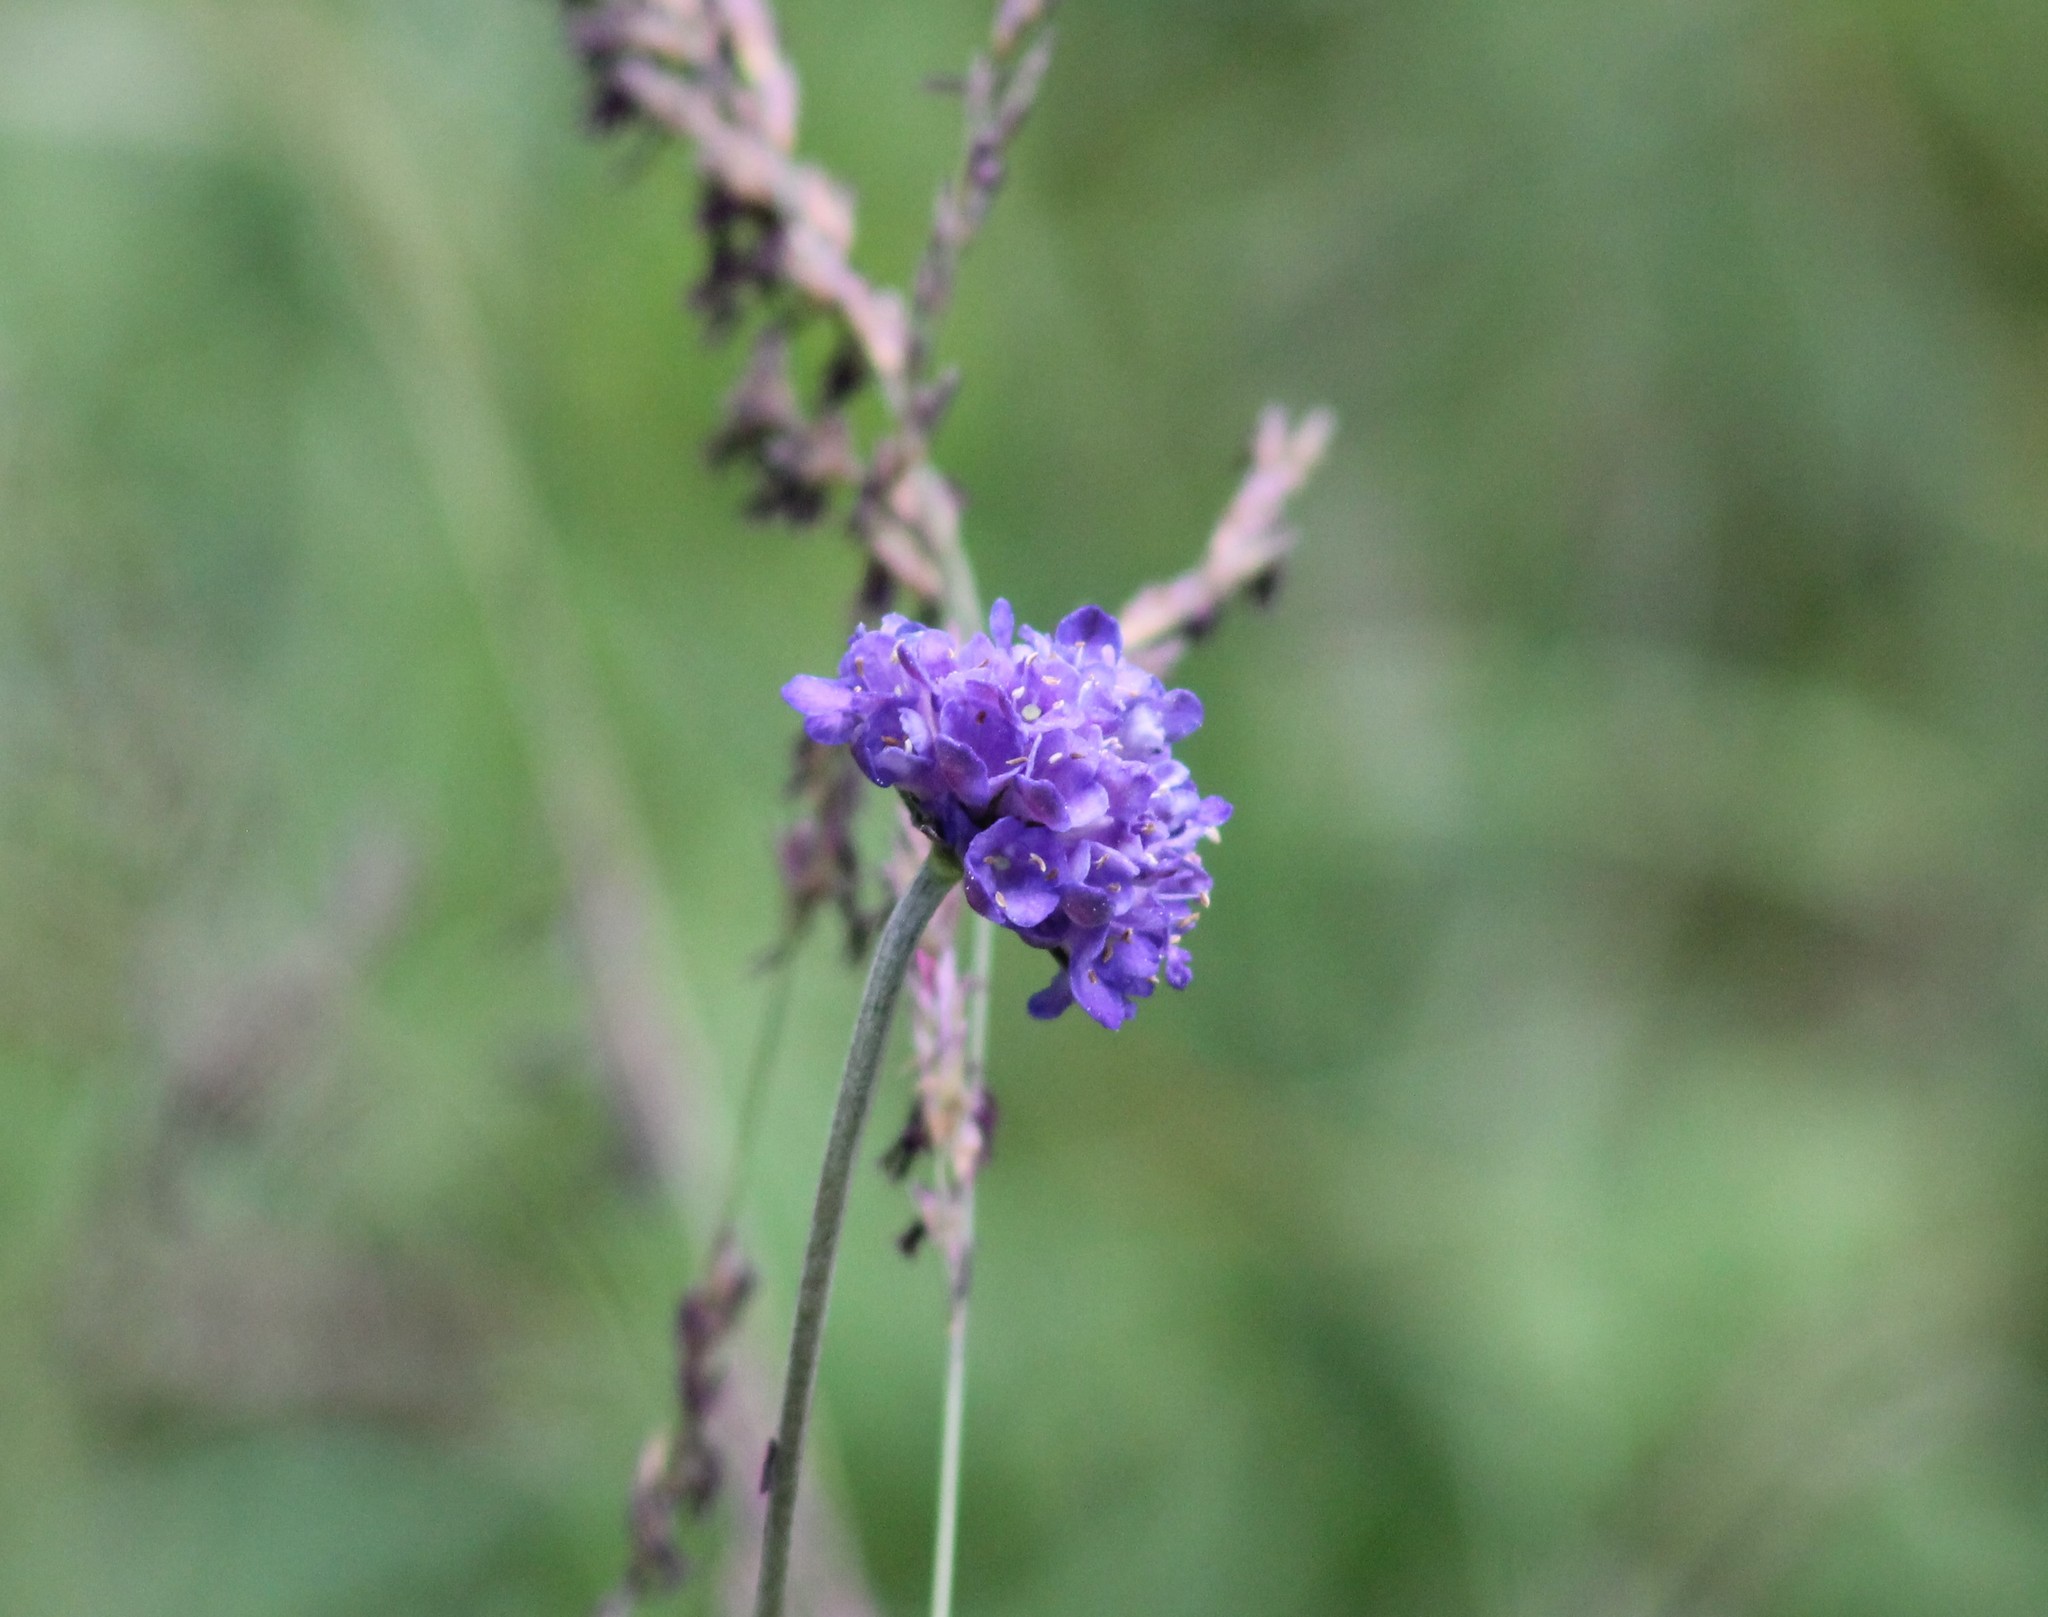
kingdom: Plantae
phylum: Tracheophyta
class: Magnoliopsida
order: Dipsacales
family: Caprifoliaceae
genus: Succisa
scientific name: Succisa pratensis
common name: Devil's-bit
